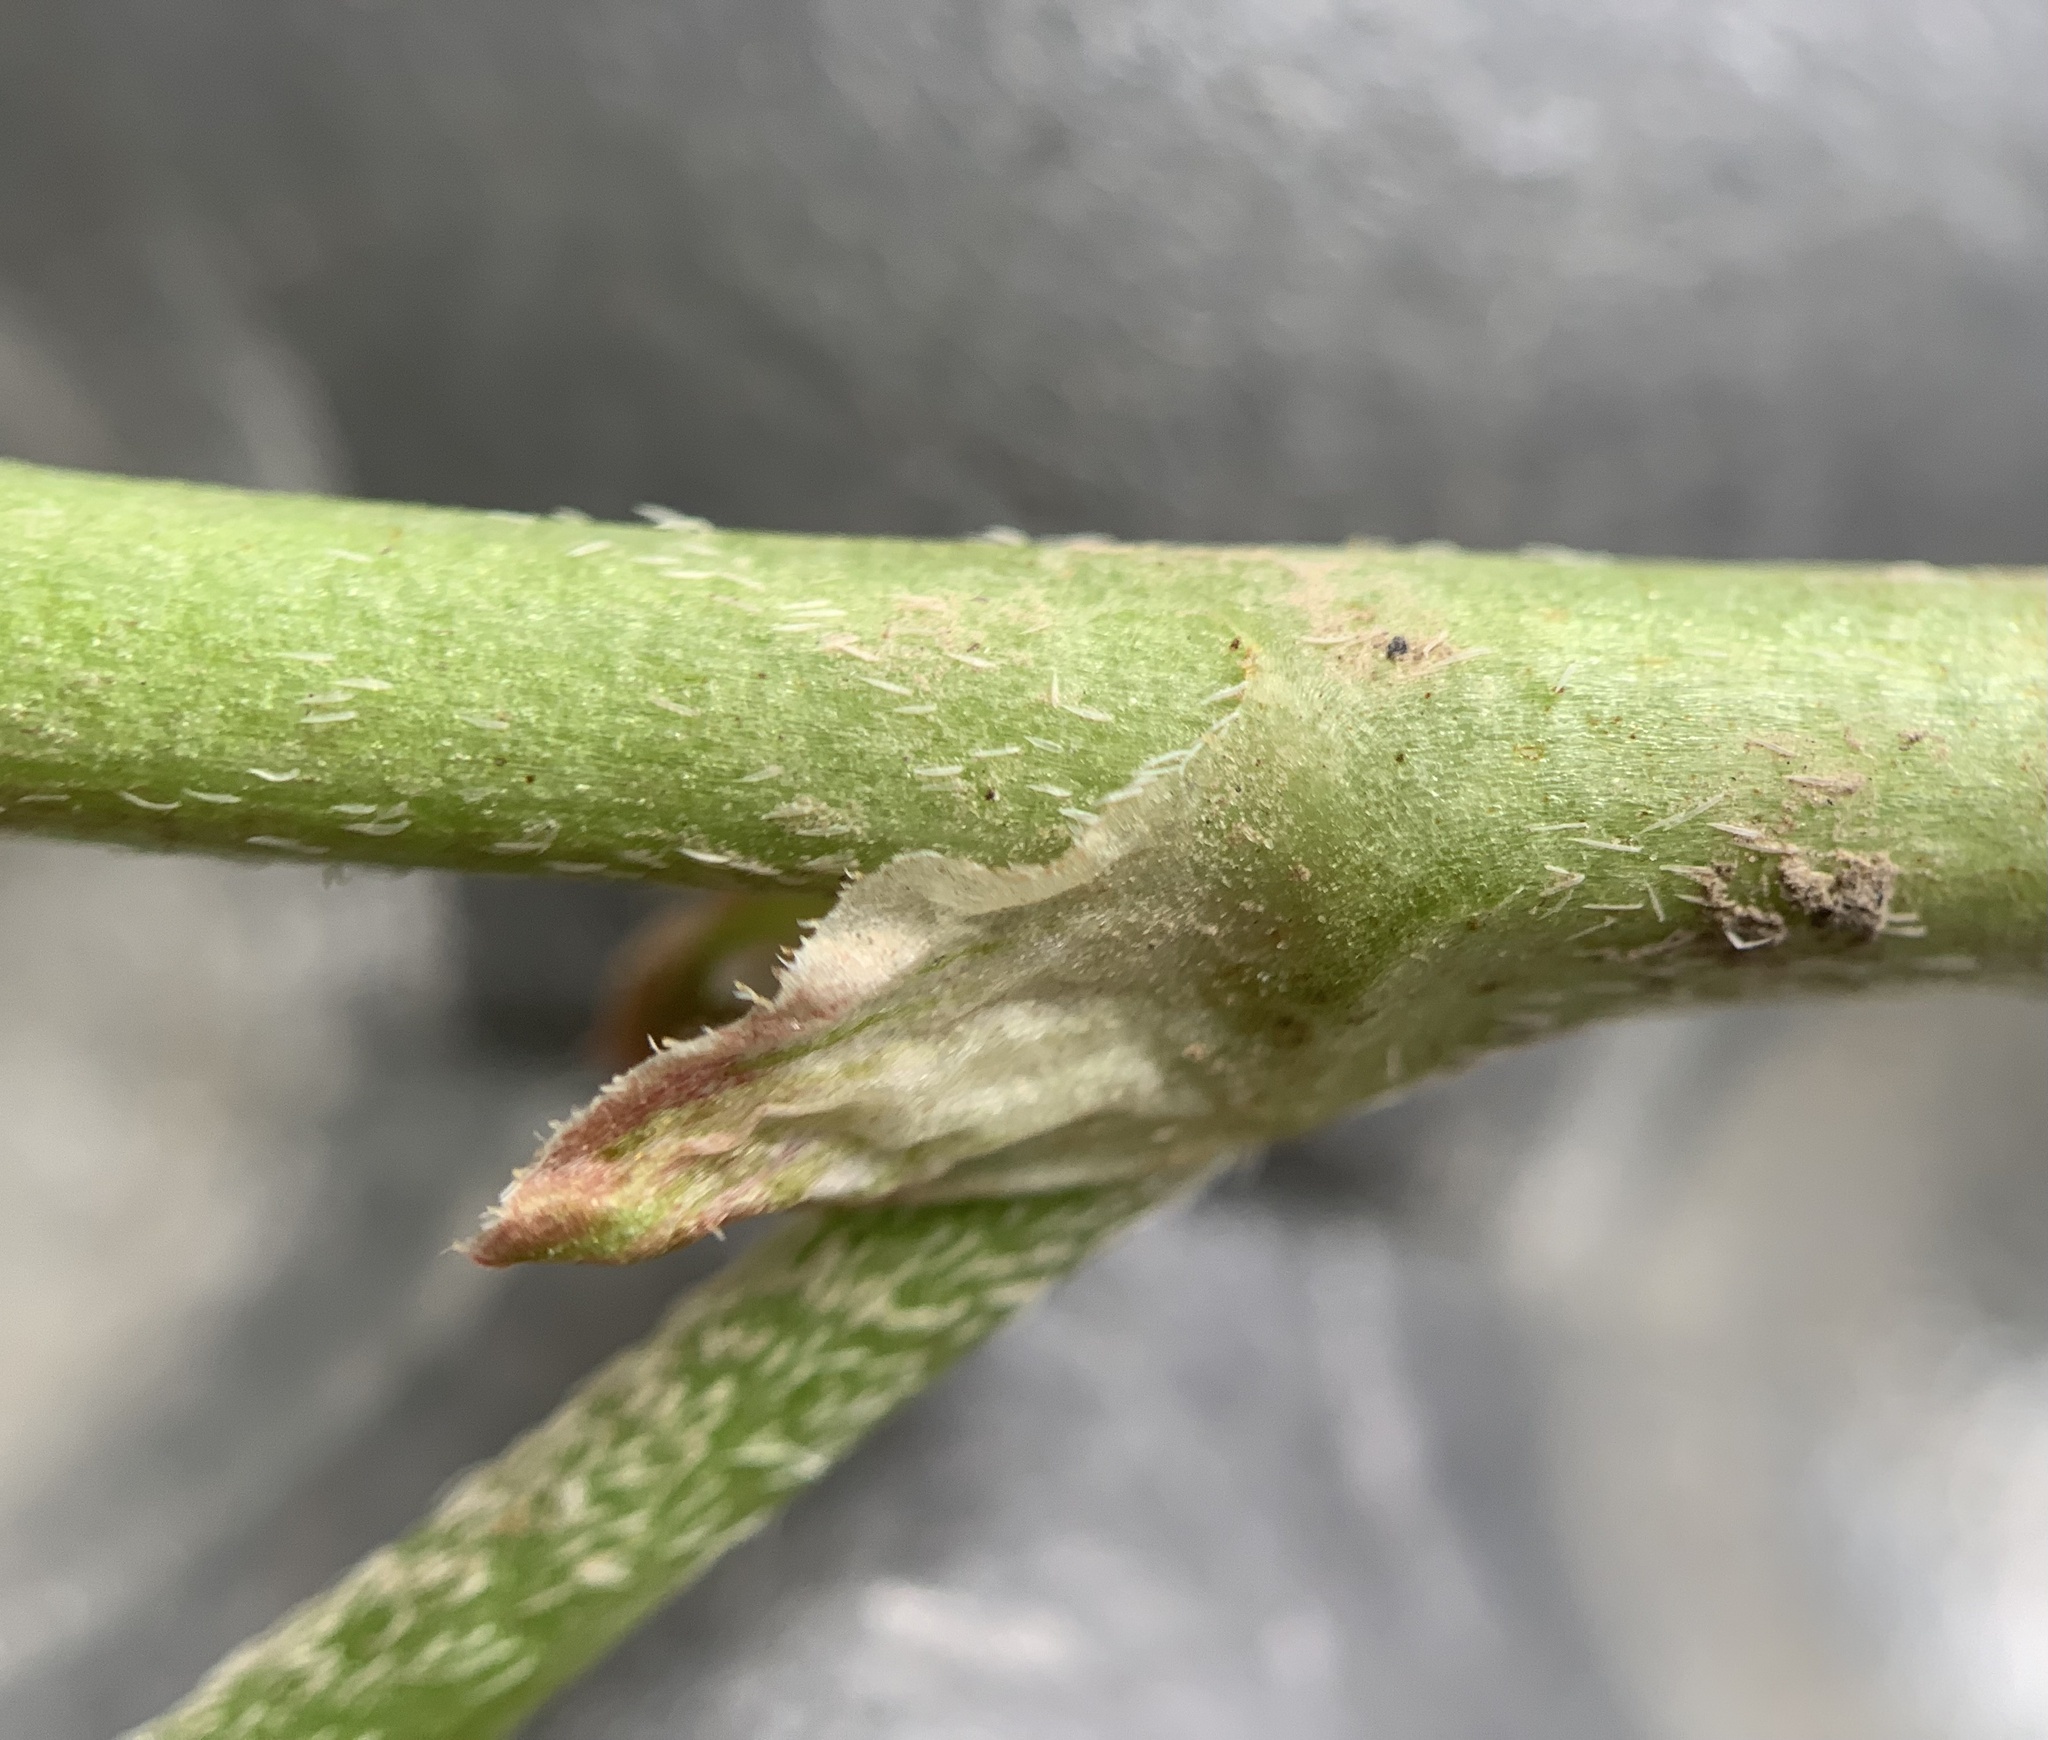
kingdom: Plantae
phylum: Tracheophyta
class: Magnoliopsida
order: Fabales
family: Fabaceae
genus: Astragalus
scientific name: Astragalus cibarius
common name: Browse milk-vetch
